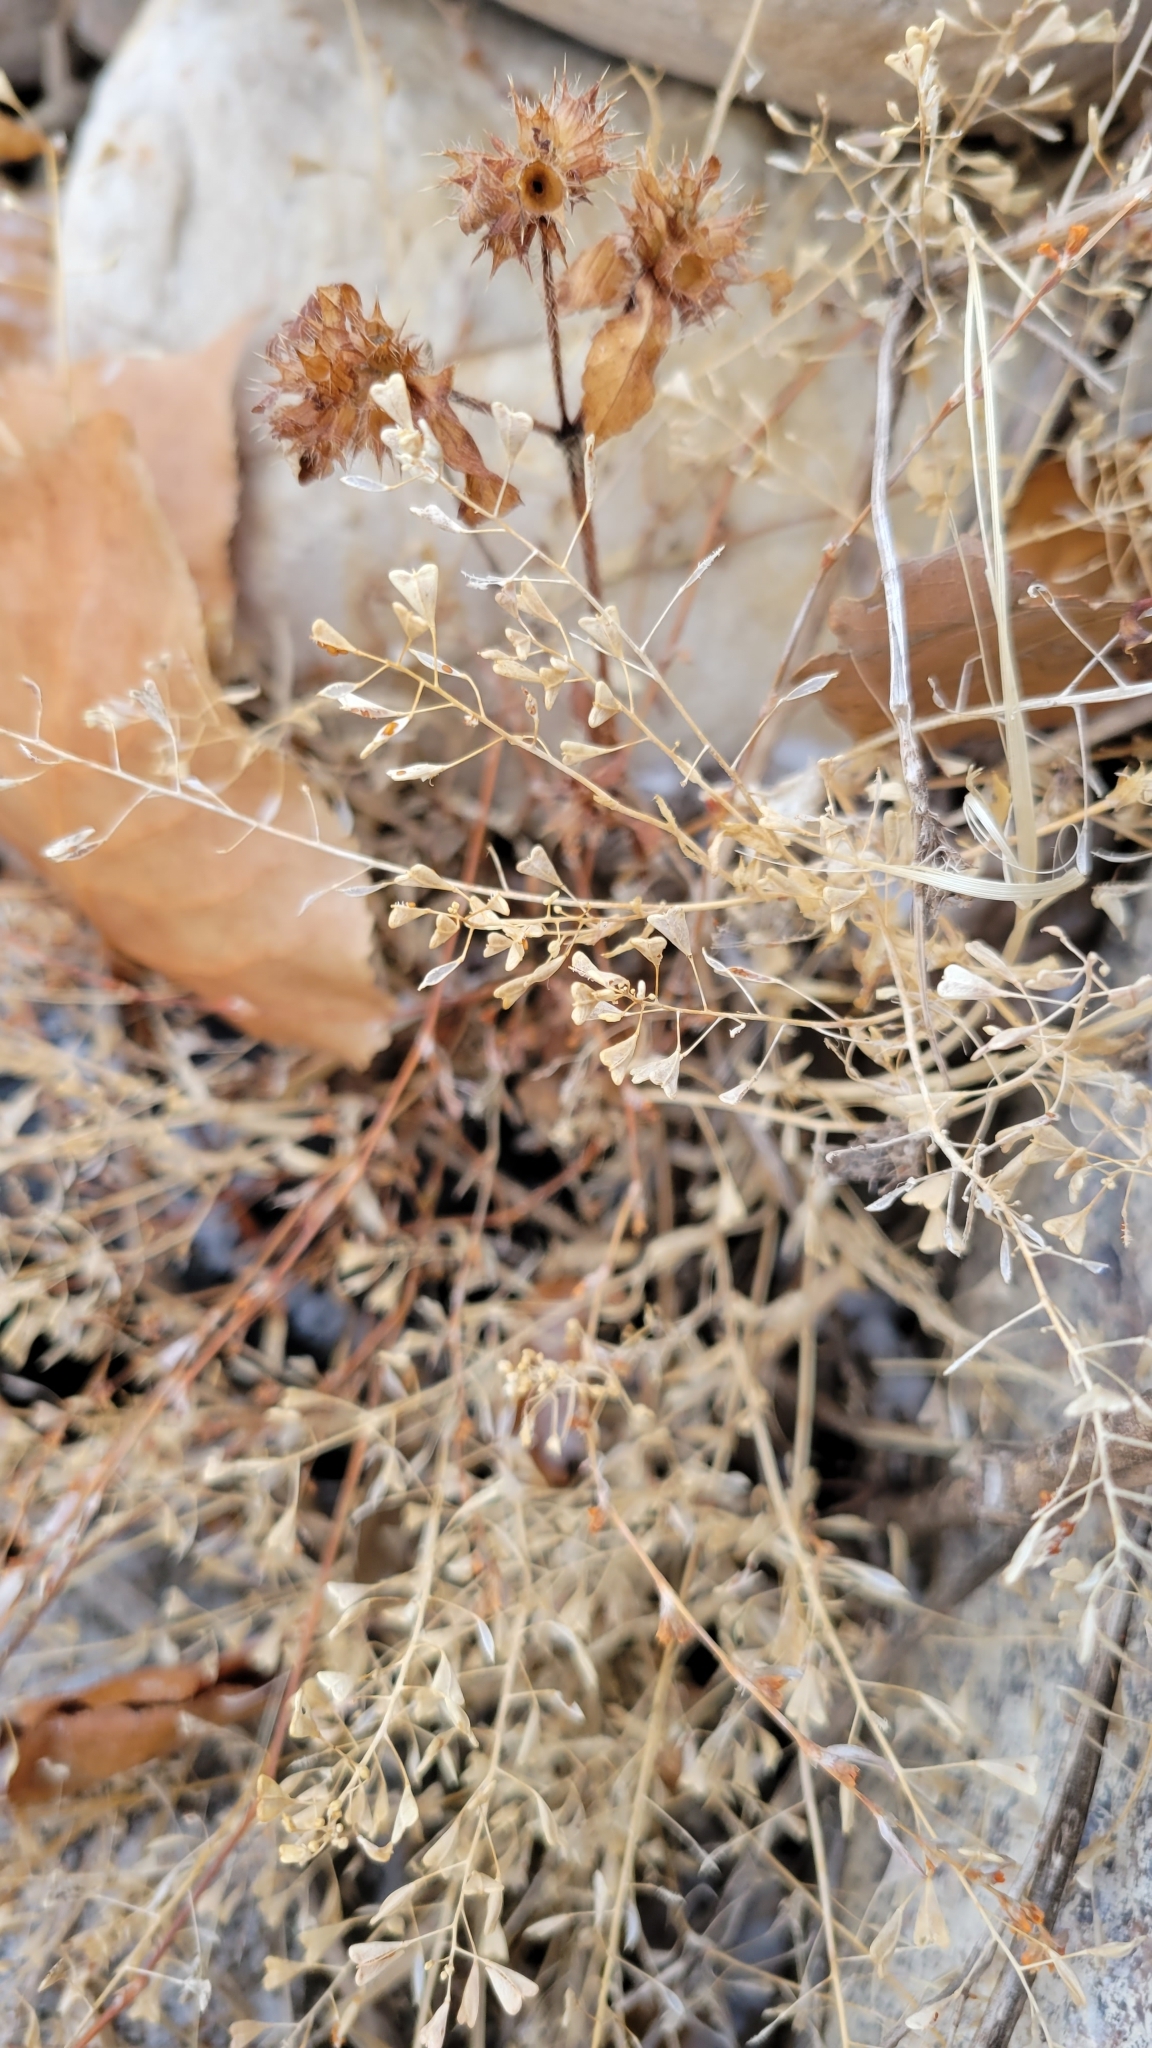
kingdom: Plantae
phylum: Tracheophyta
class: Magnoliopsida
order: Brassicales
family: Brassicaceae
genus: Capsella
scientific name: Capsella bursa-pastoris
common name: Shepherd's purse
